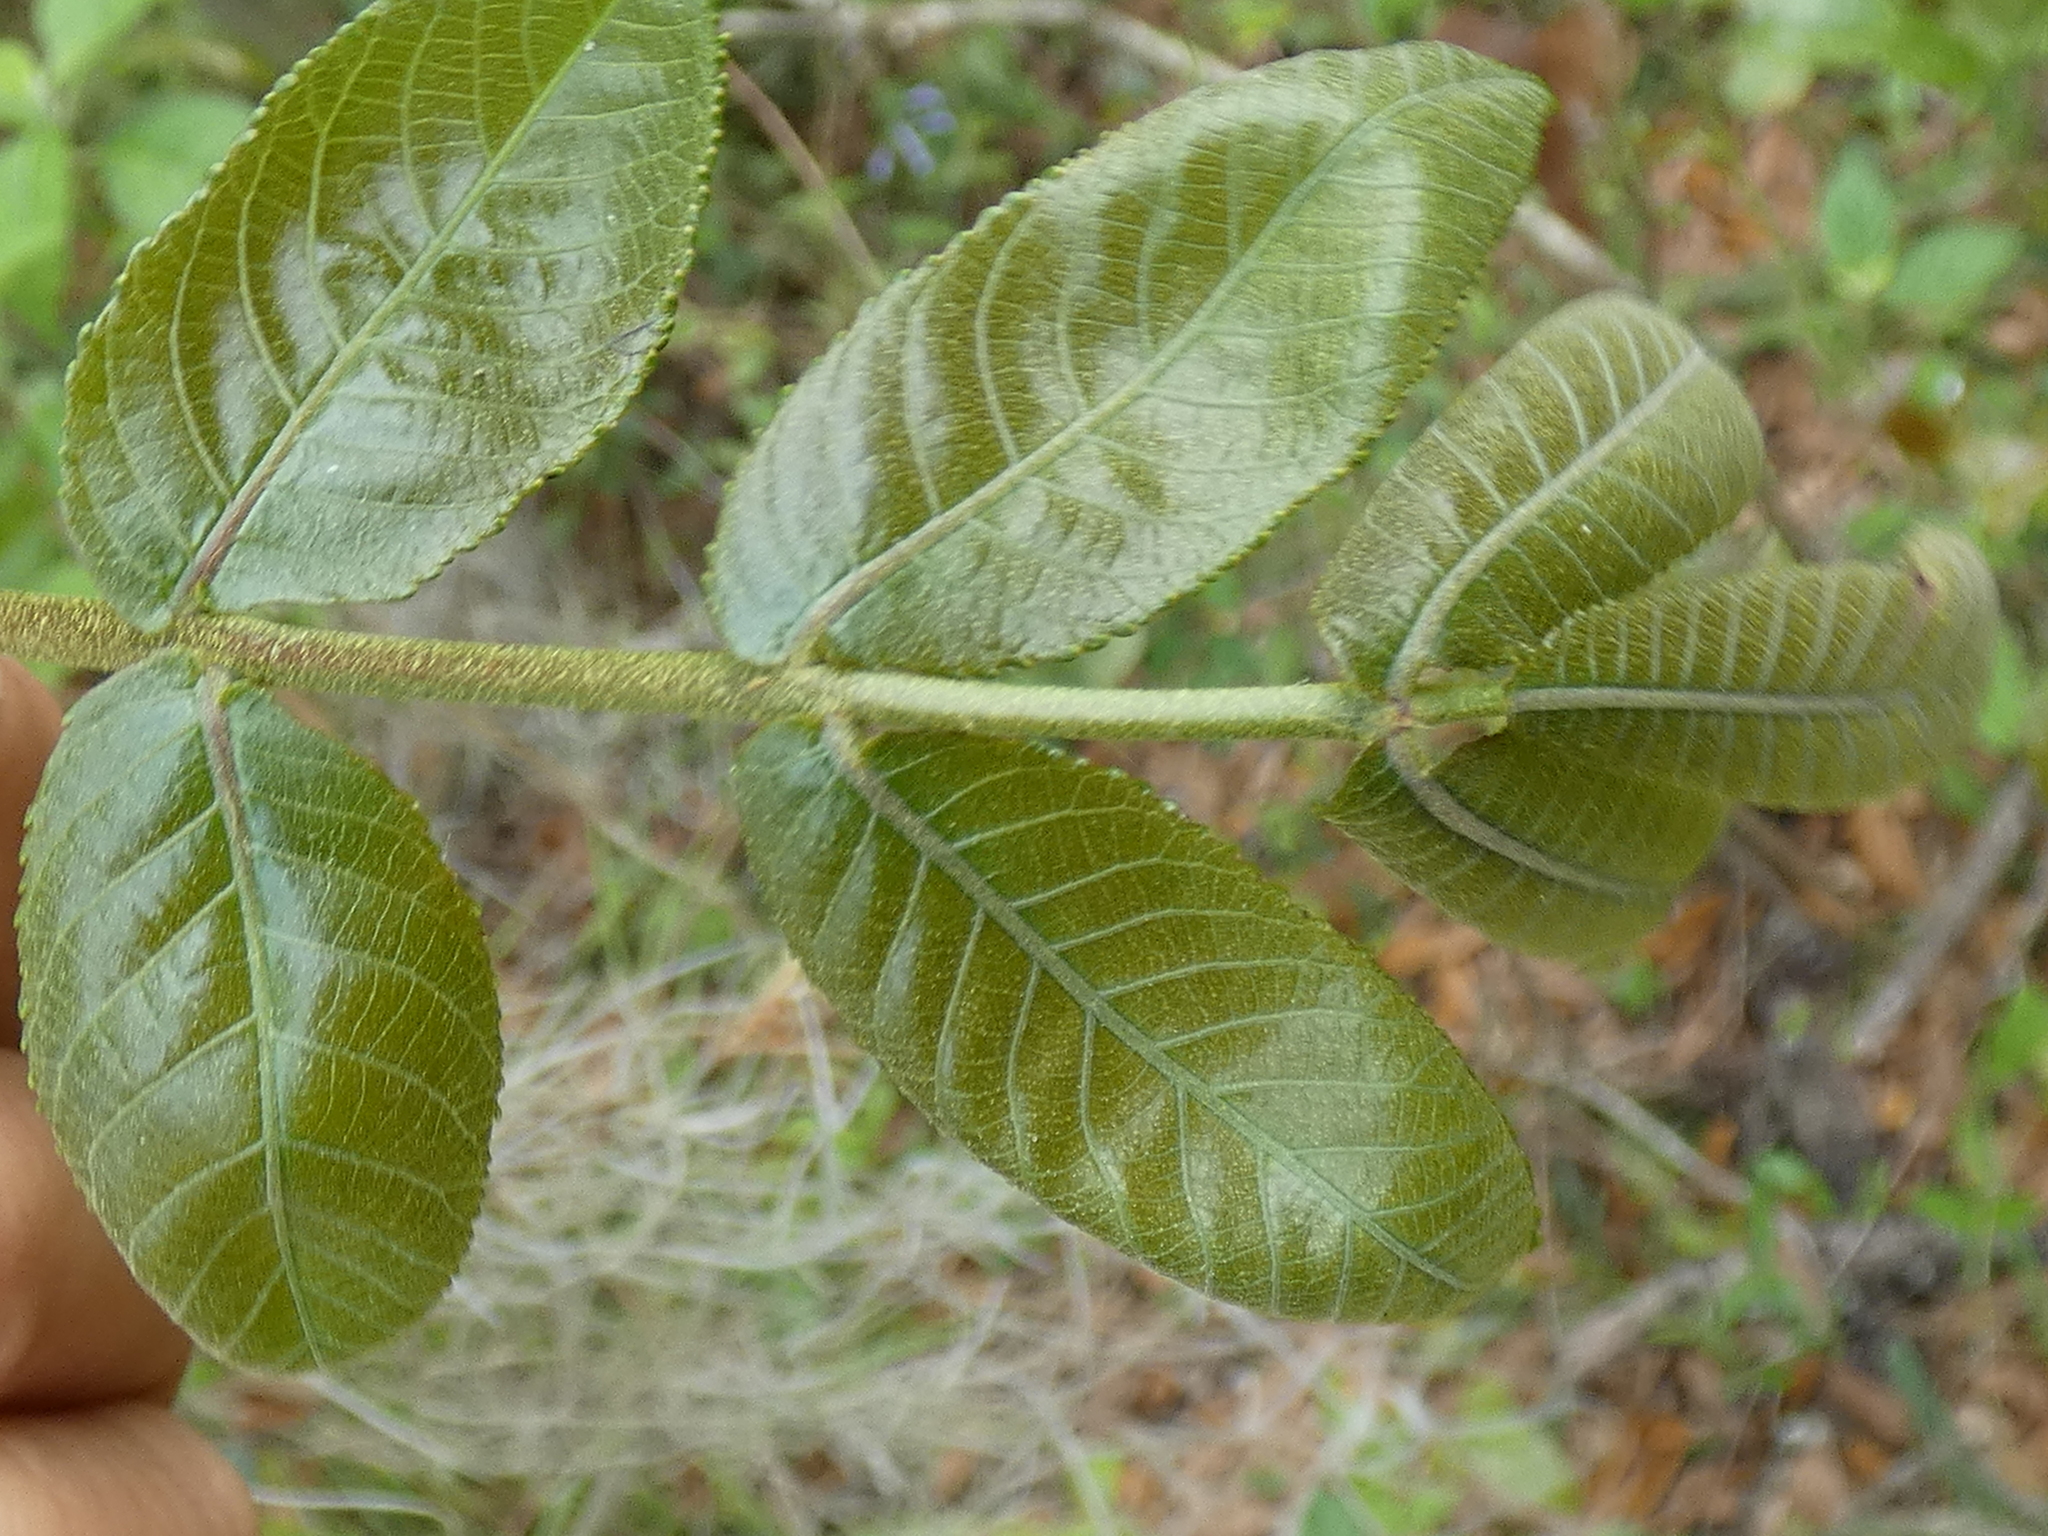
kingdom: Plantae
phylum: Tracheophyta
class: Magnoliopsida
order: Fagales
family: Juglandaceae
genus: Carya
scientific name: Carya glabra
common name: Pignut hickory
